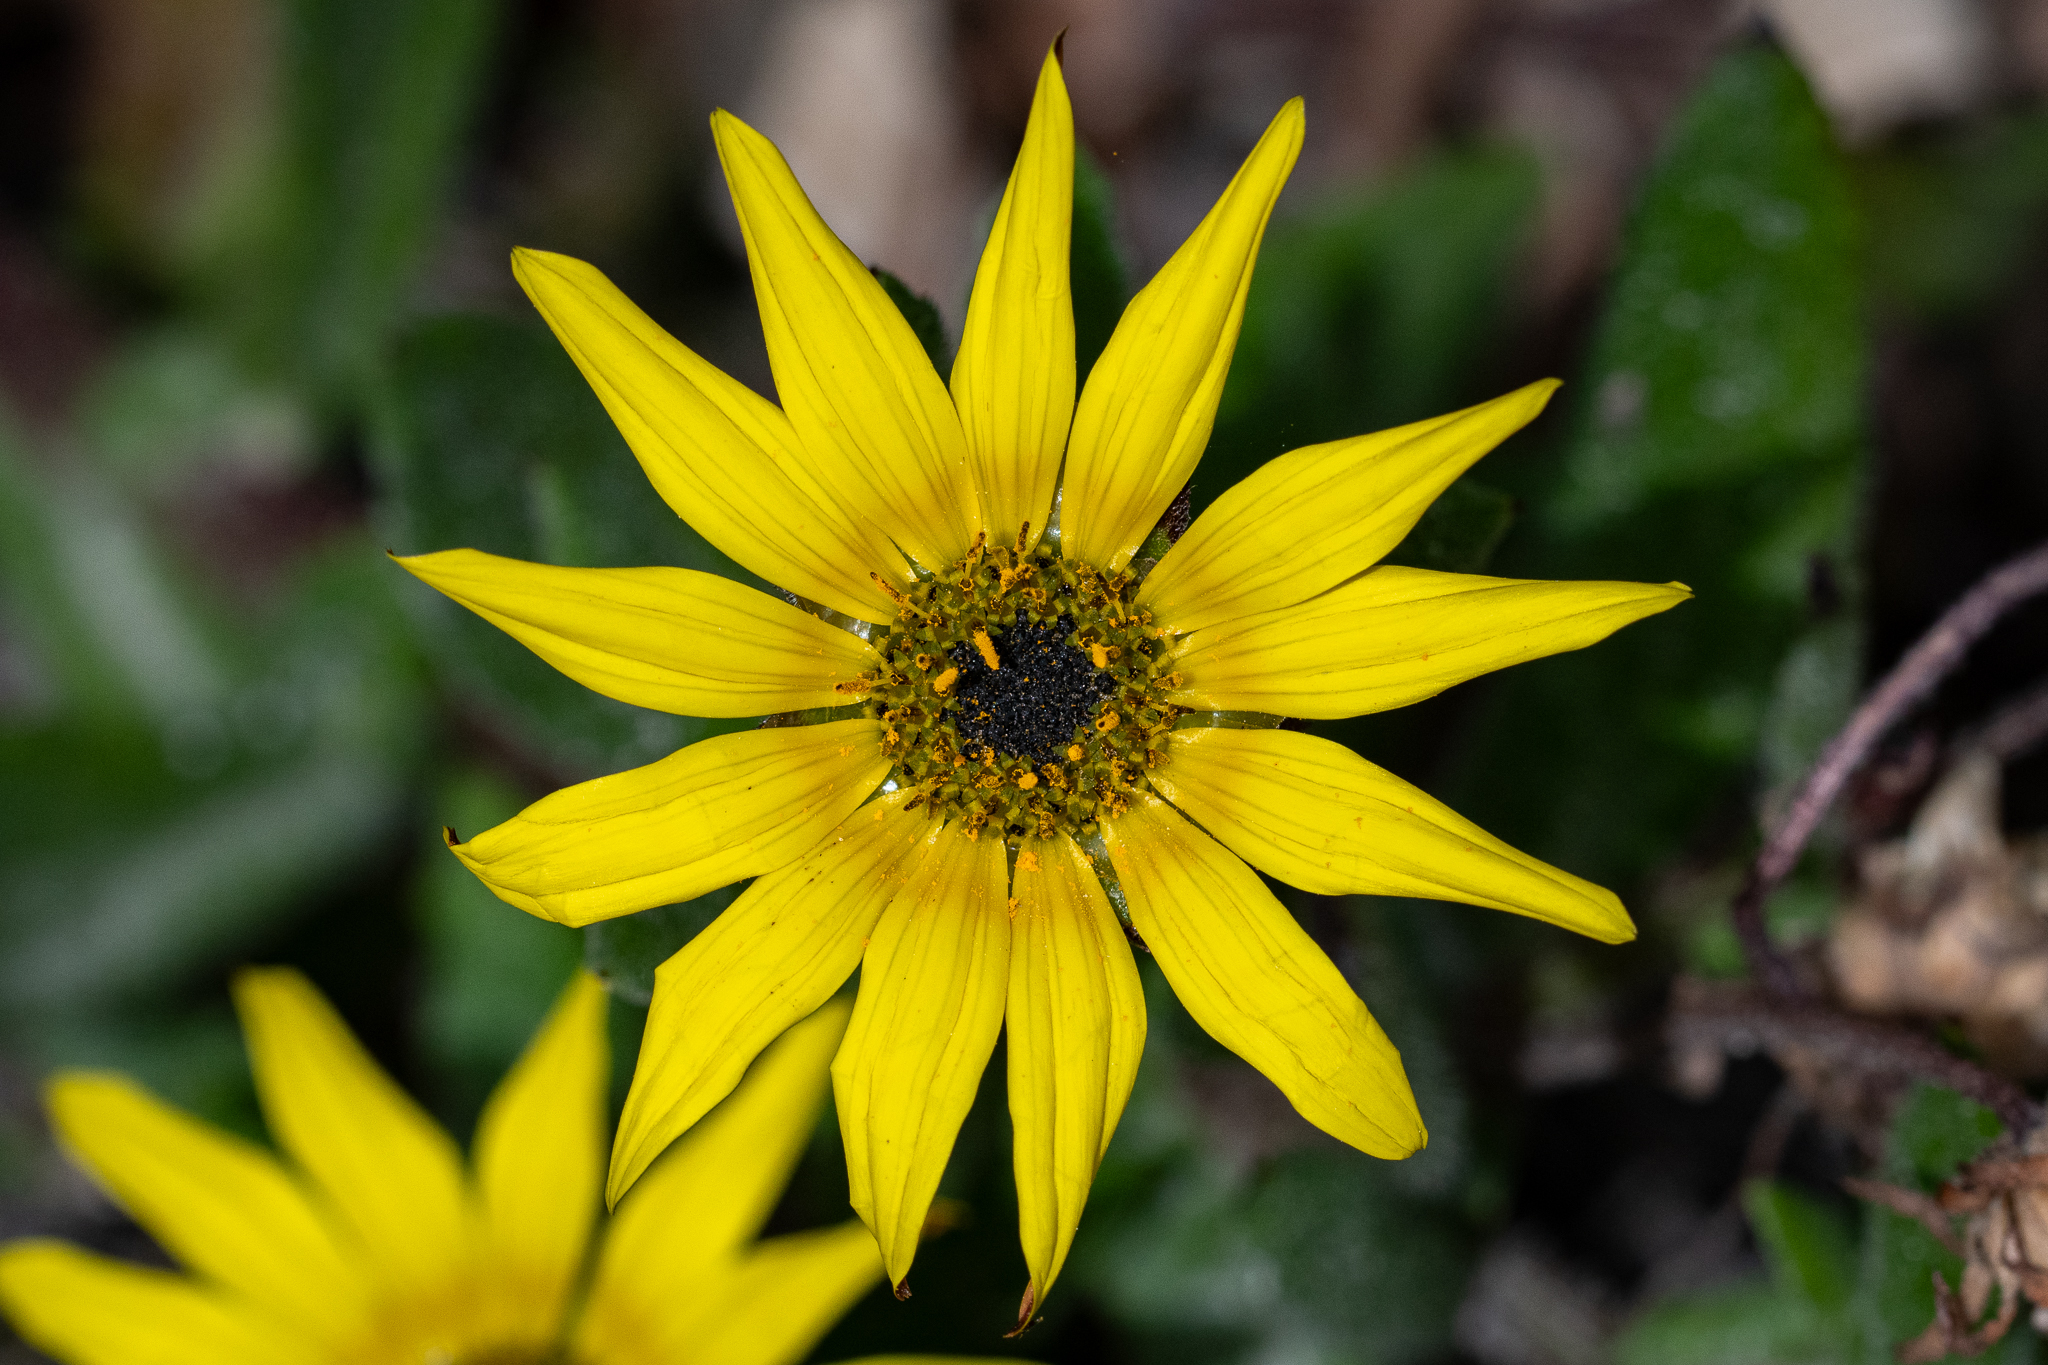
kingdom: Plantae
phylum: Tracheophyta
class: Magnoliopsida
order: Asterales
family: Asteraceae
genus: Arctotis
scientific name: Arctotis scabra
